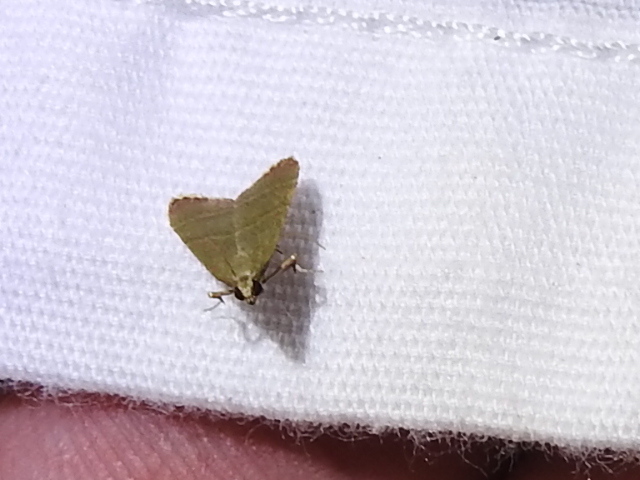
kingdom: Animalia
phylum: Arthropoda
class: Insecta
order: Lepidoptera
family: Pyralidae
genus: Arta
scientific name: Arta olivalis
